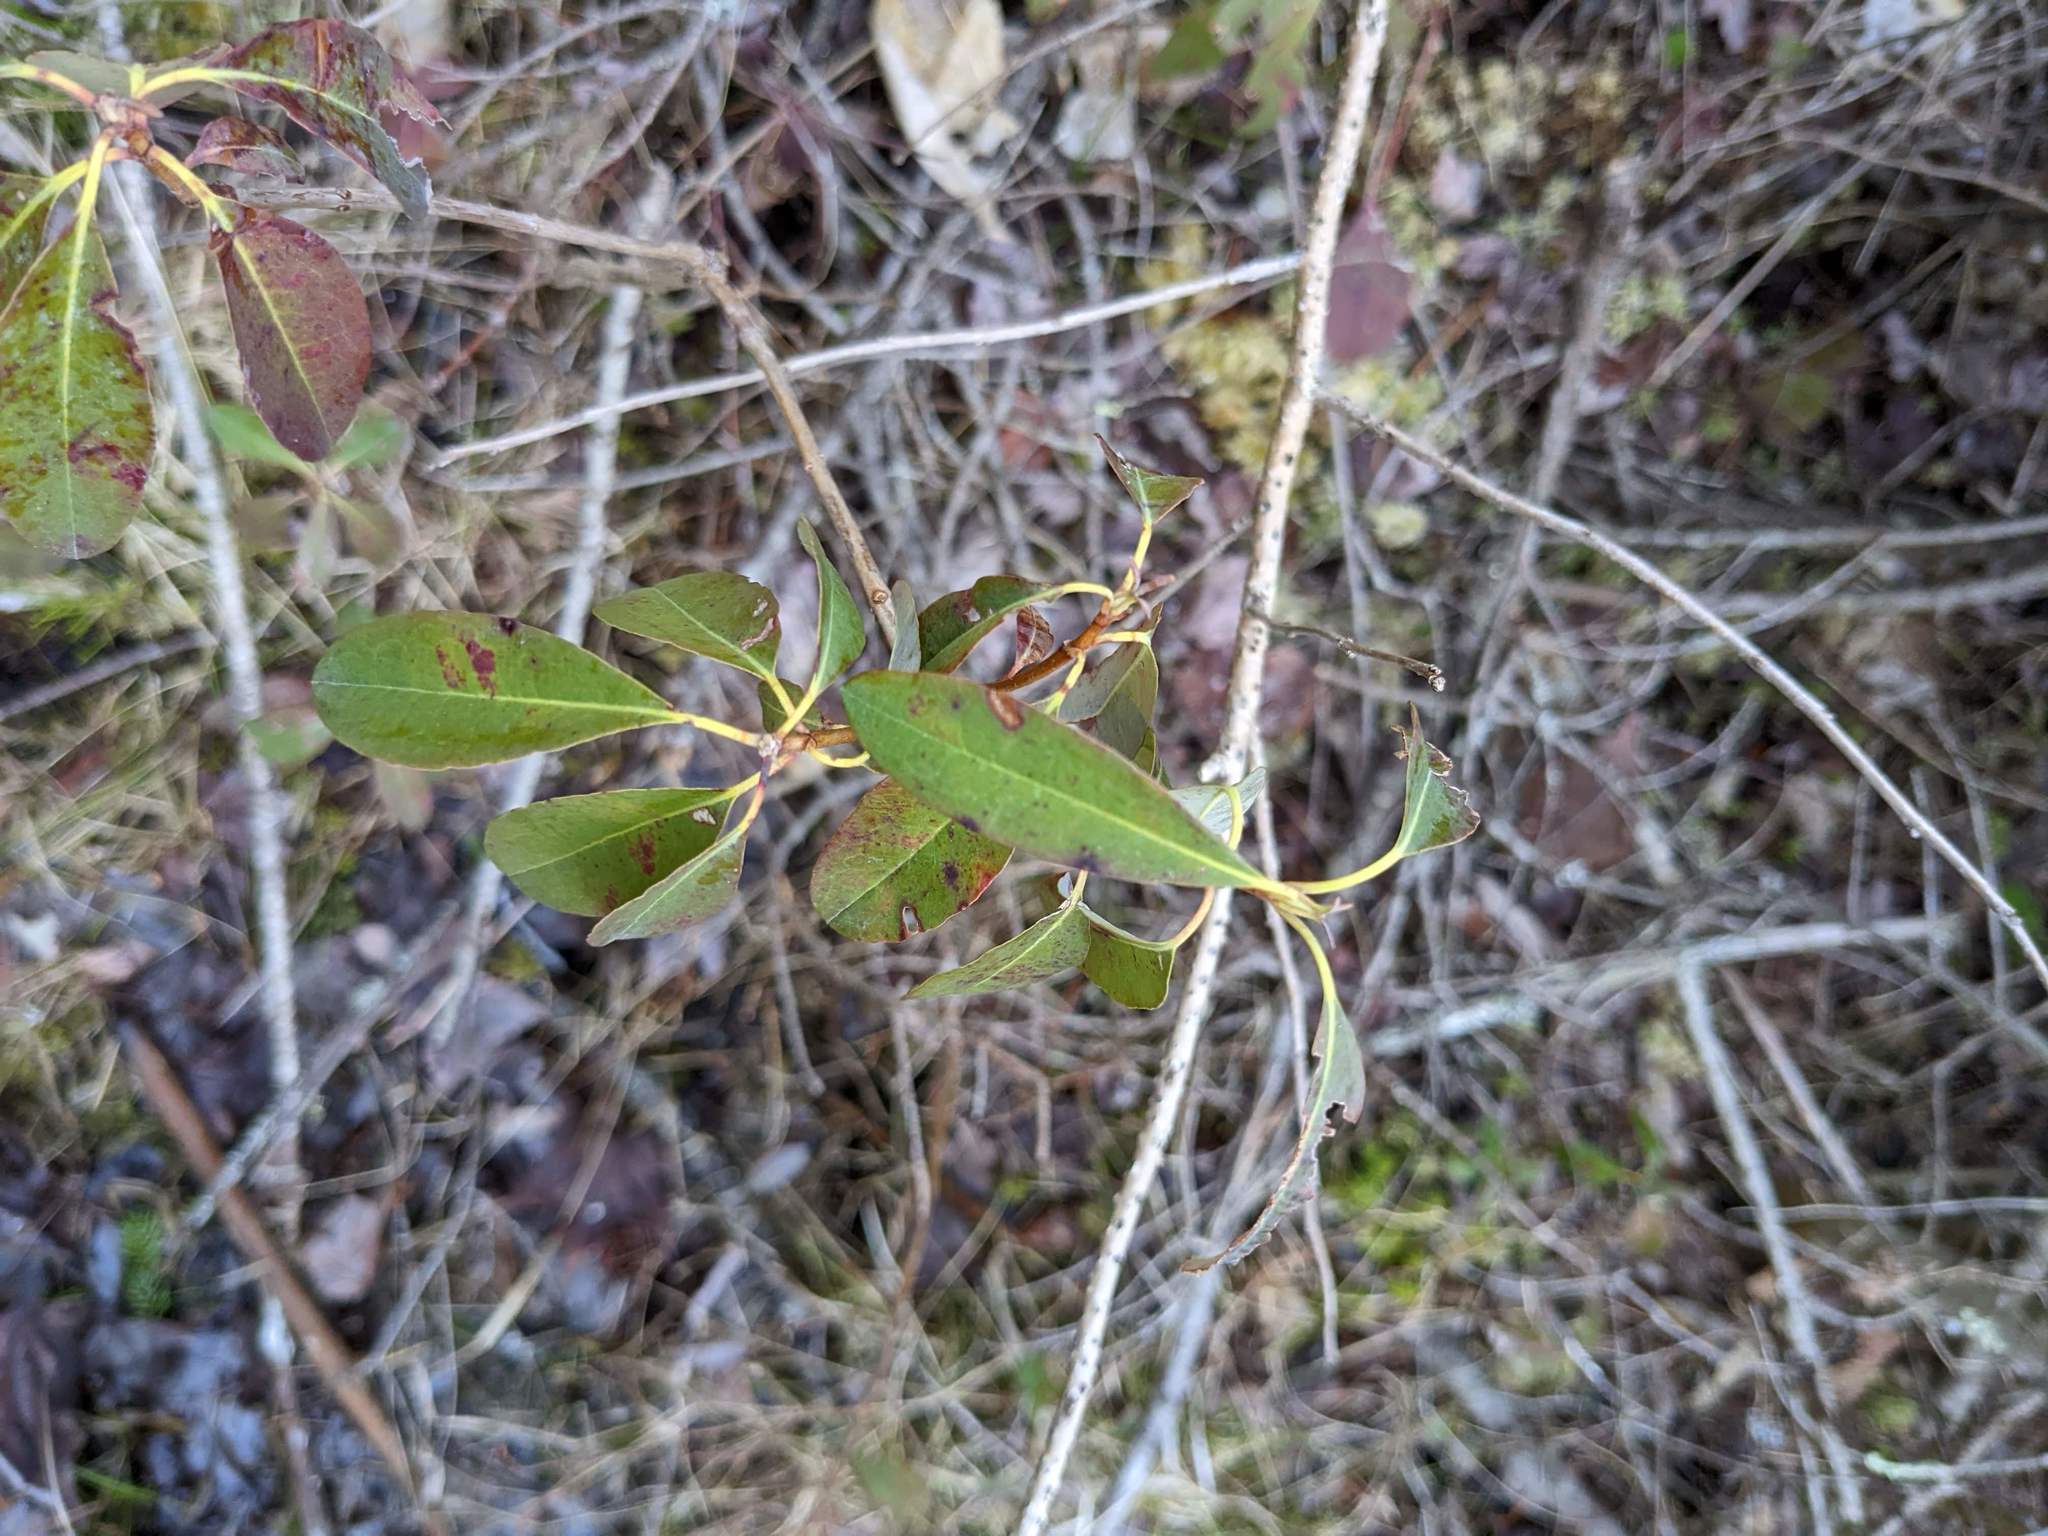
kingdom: Plantae
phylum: Tracheophyta
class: Magnoliopsida
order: Ericales
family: Ericaceae
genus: Kalmia
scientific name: Kalmia angustifolia
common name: Sheep-laurel
